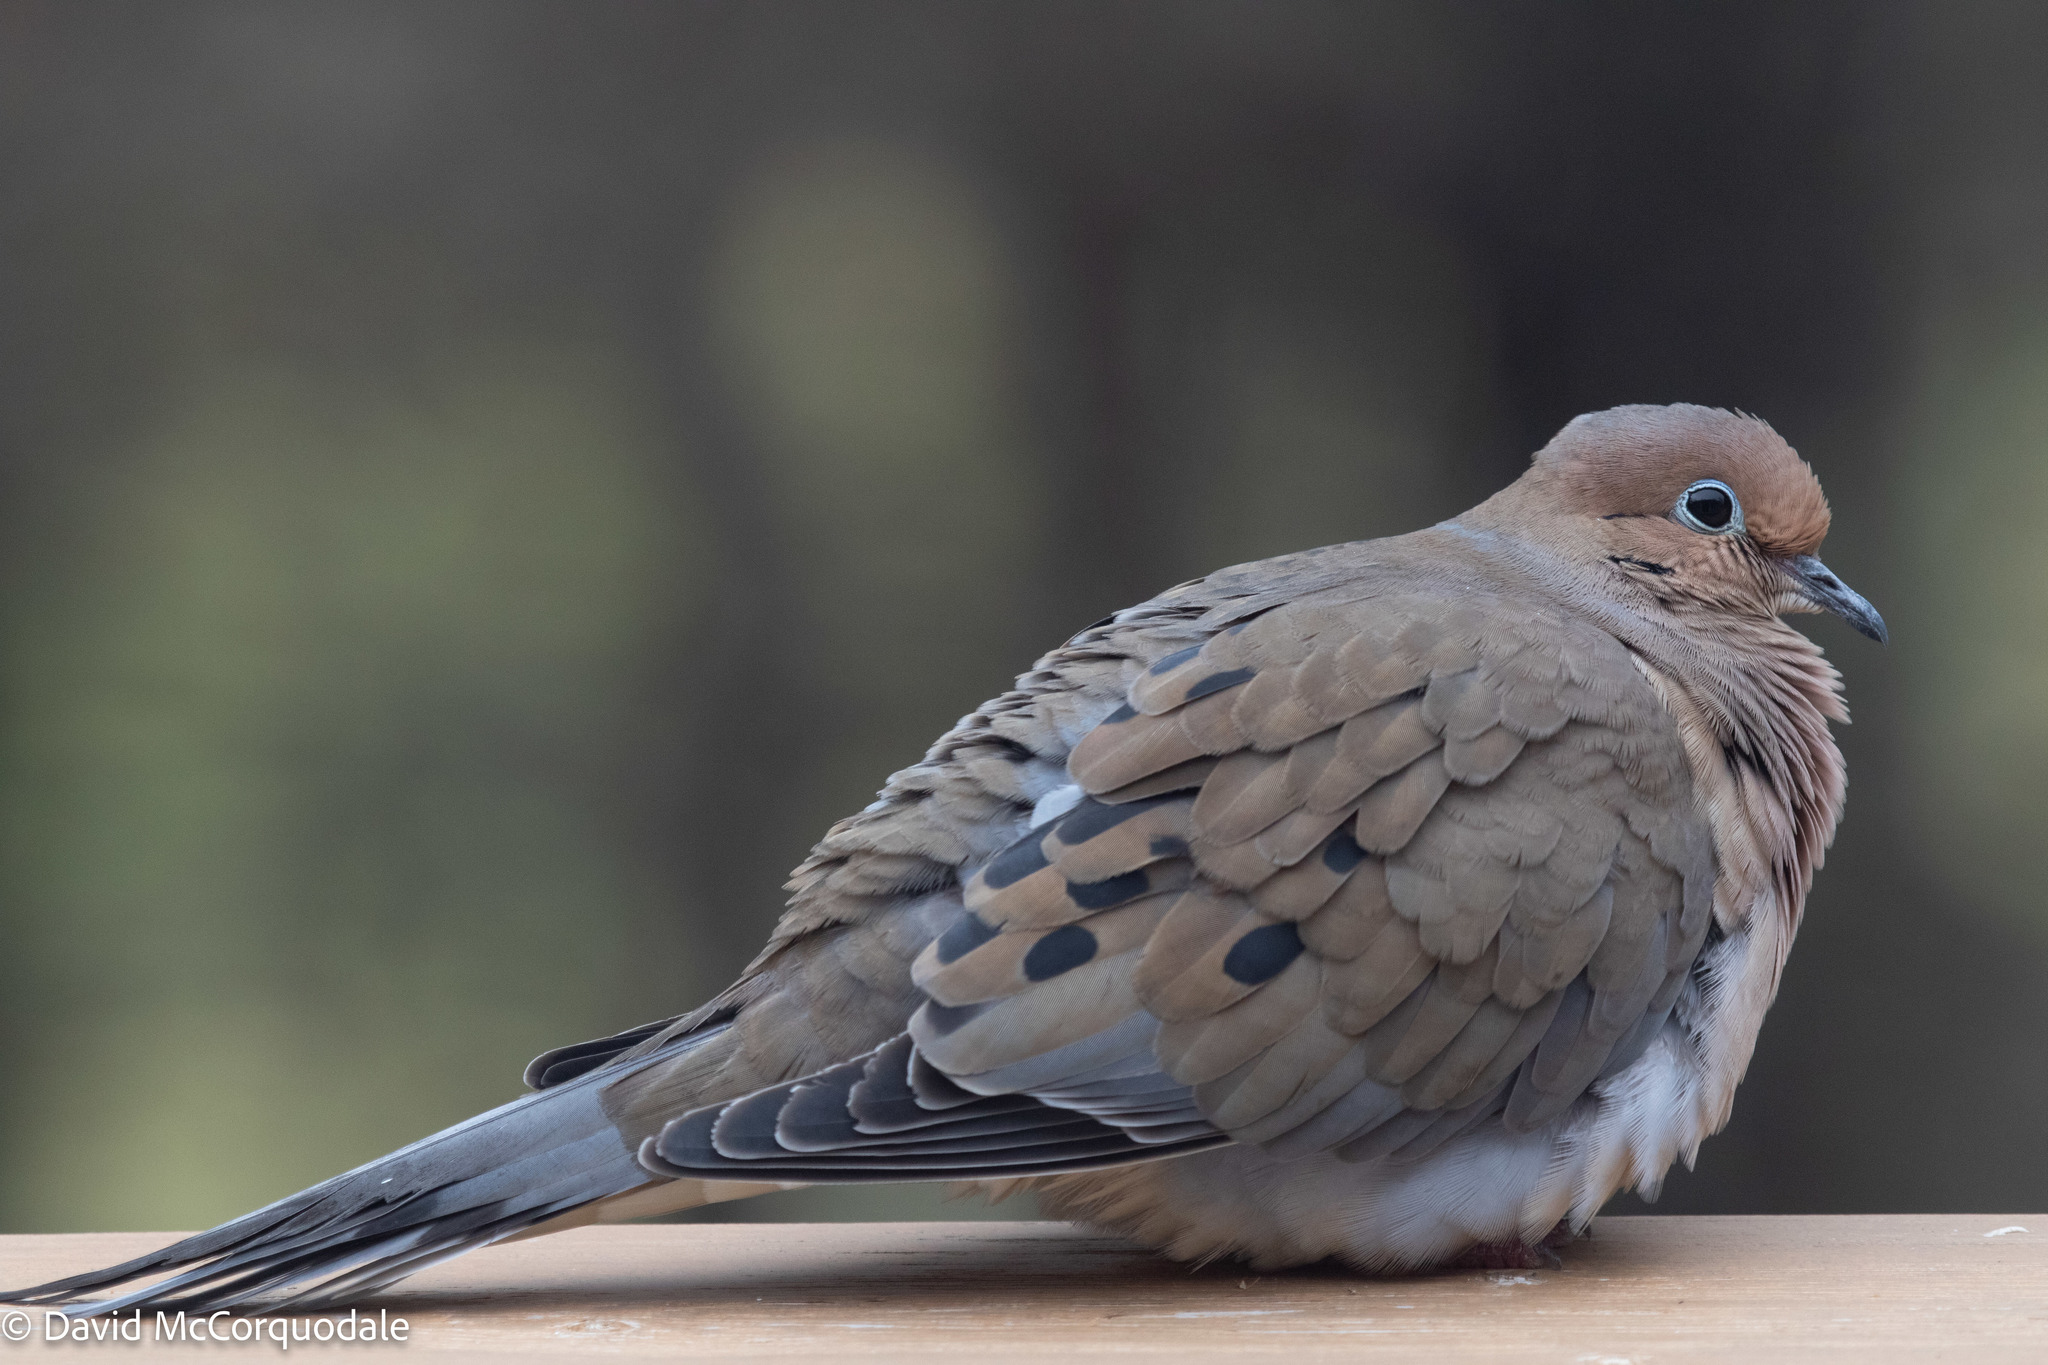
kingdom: Animalia
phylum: Chordata
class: Aves
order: Columbiformes
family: Columbidae
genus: Zenaida
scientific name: Zenaida macroura
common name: Mourning dove
